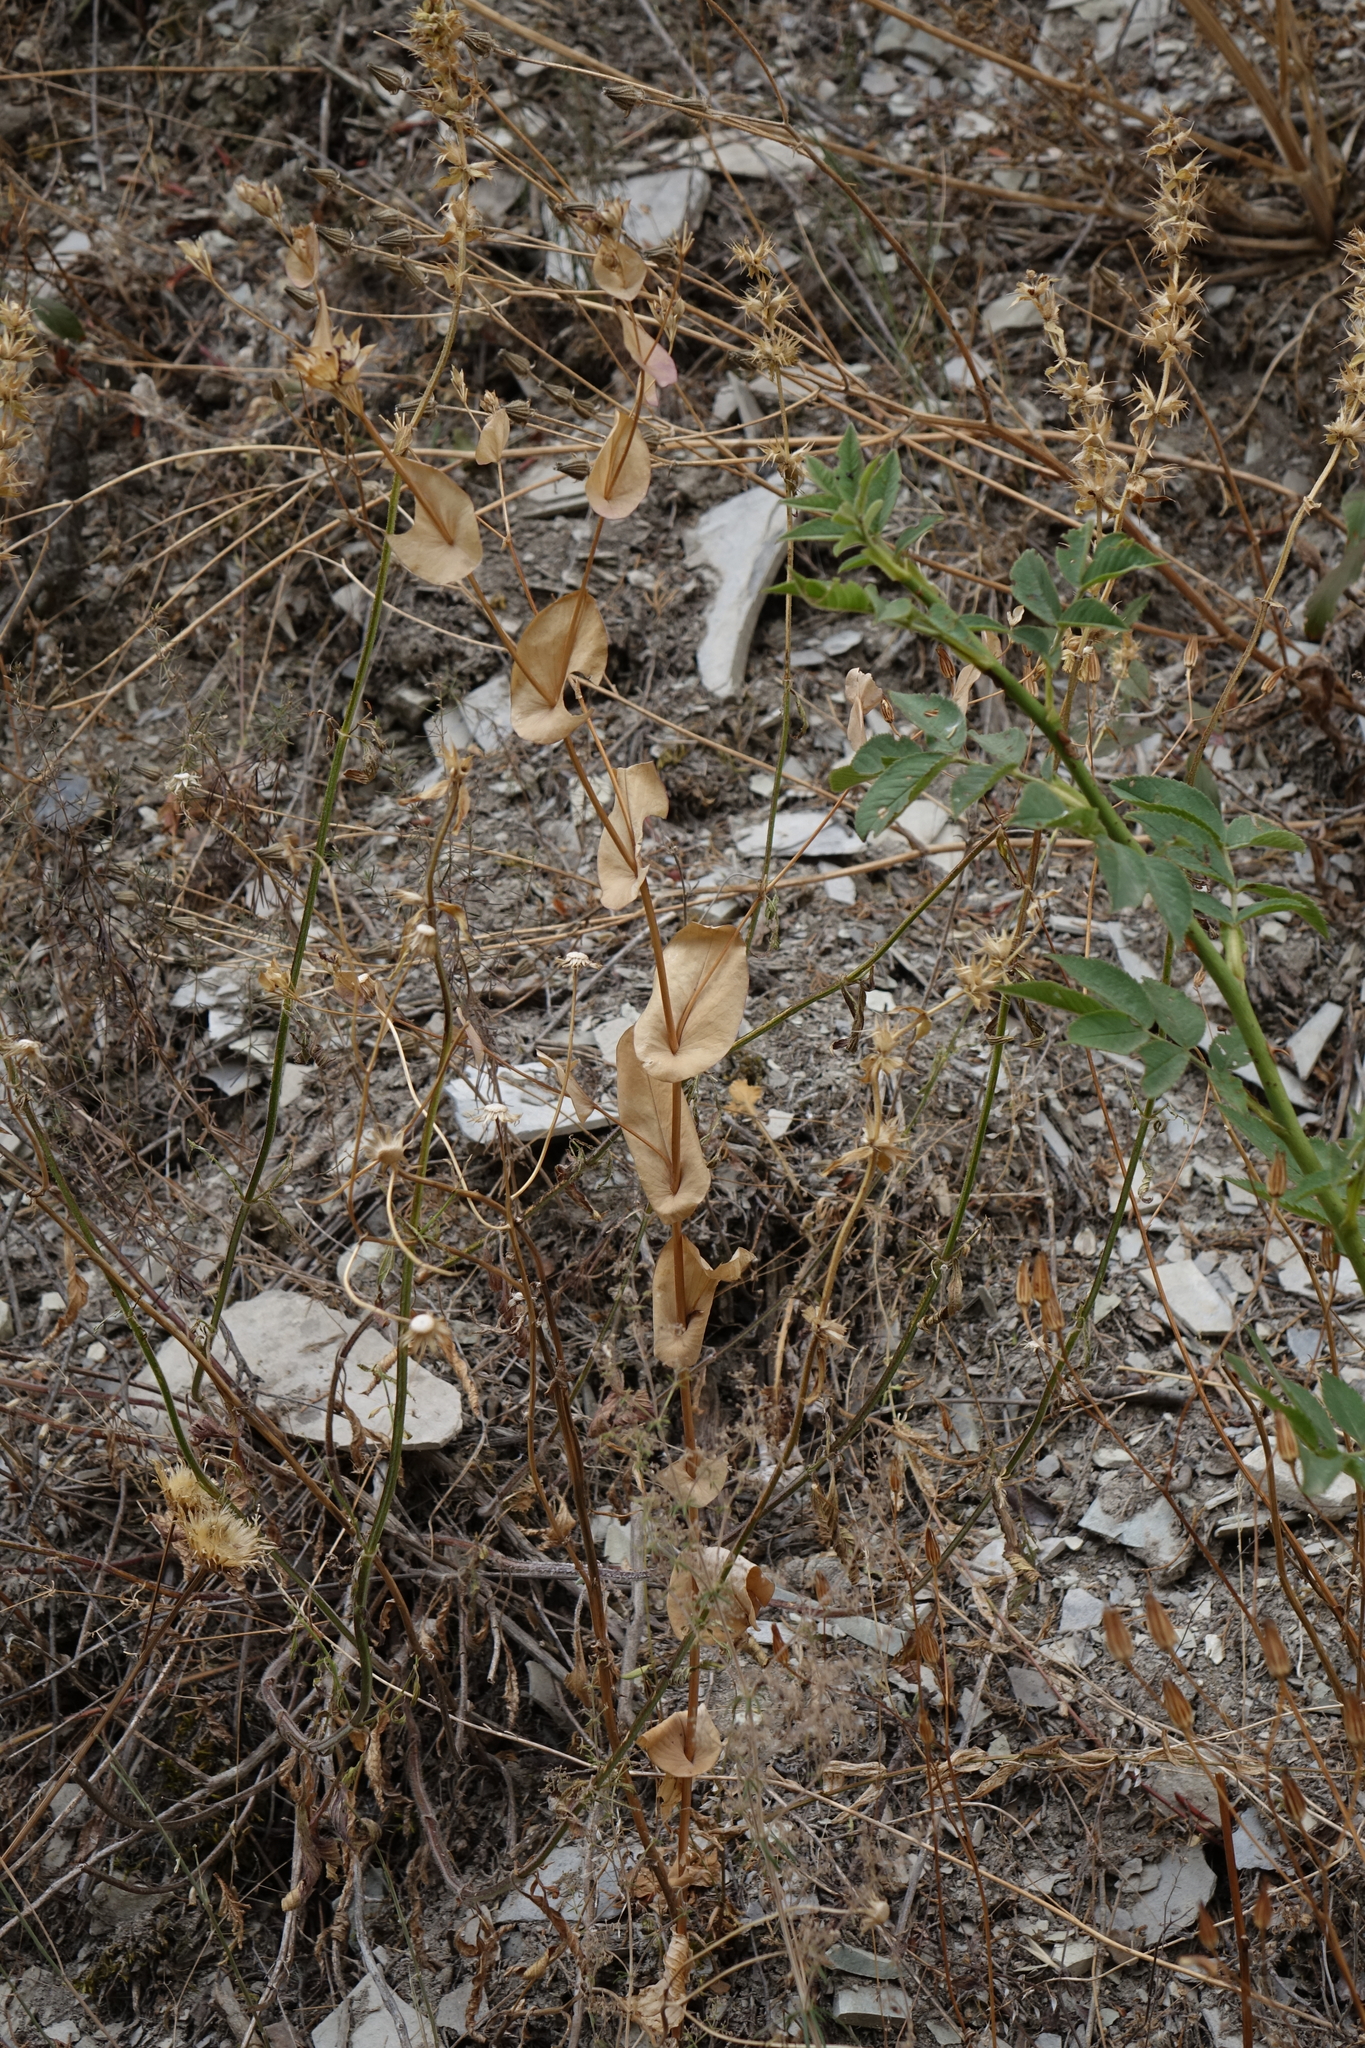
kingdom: Plantae
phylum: Tracheophyta
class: Magnoliopsida
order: Apiales
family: Apiaceae
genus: Bupleurum
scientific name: Bupleurum rotundifolium
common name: Thorow-wax
